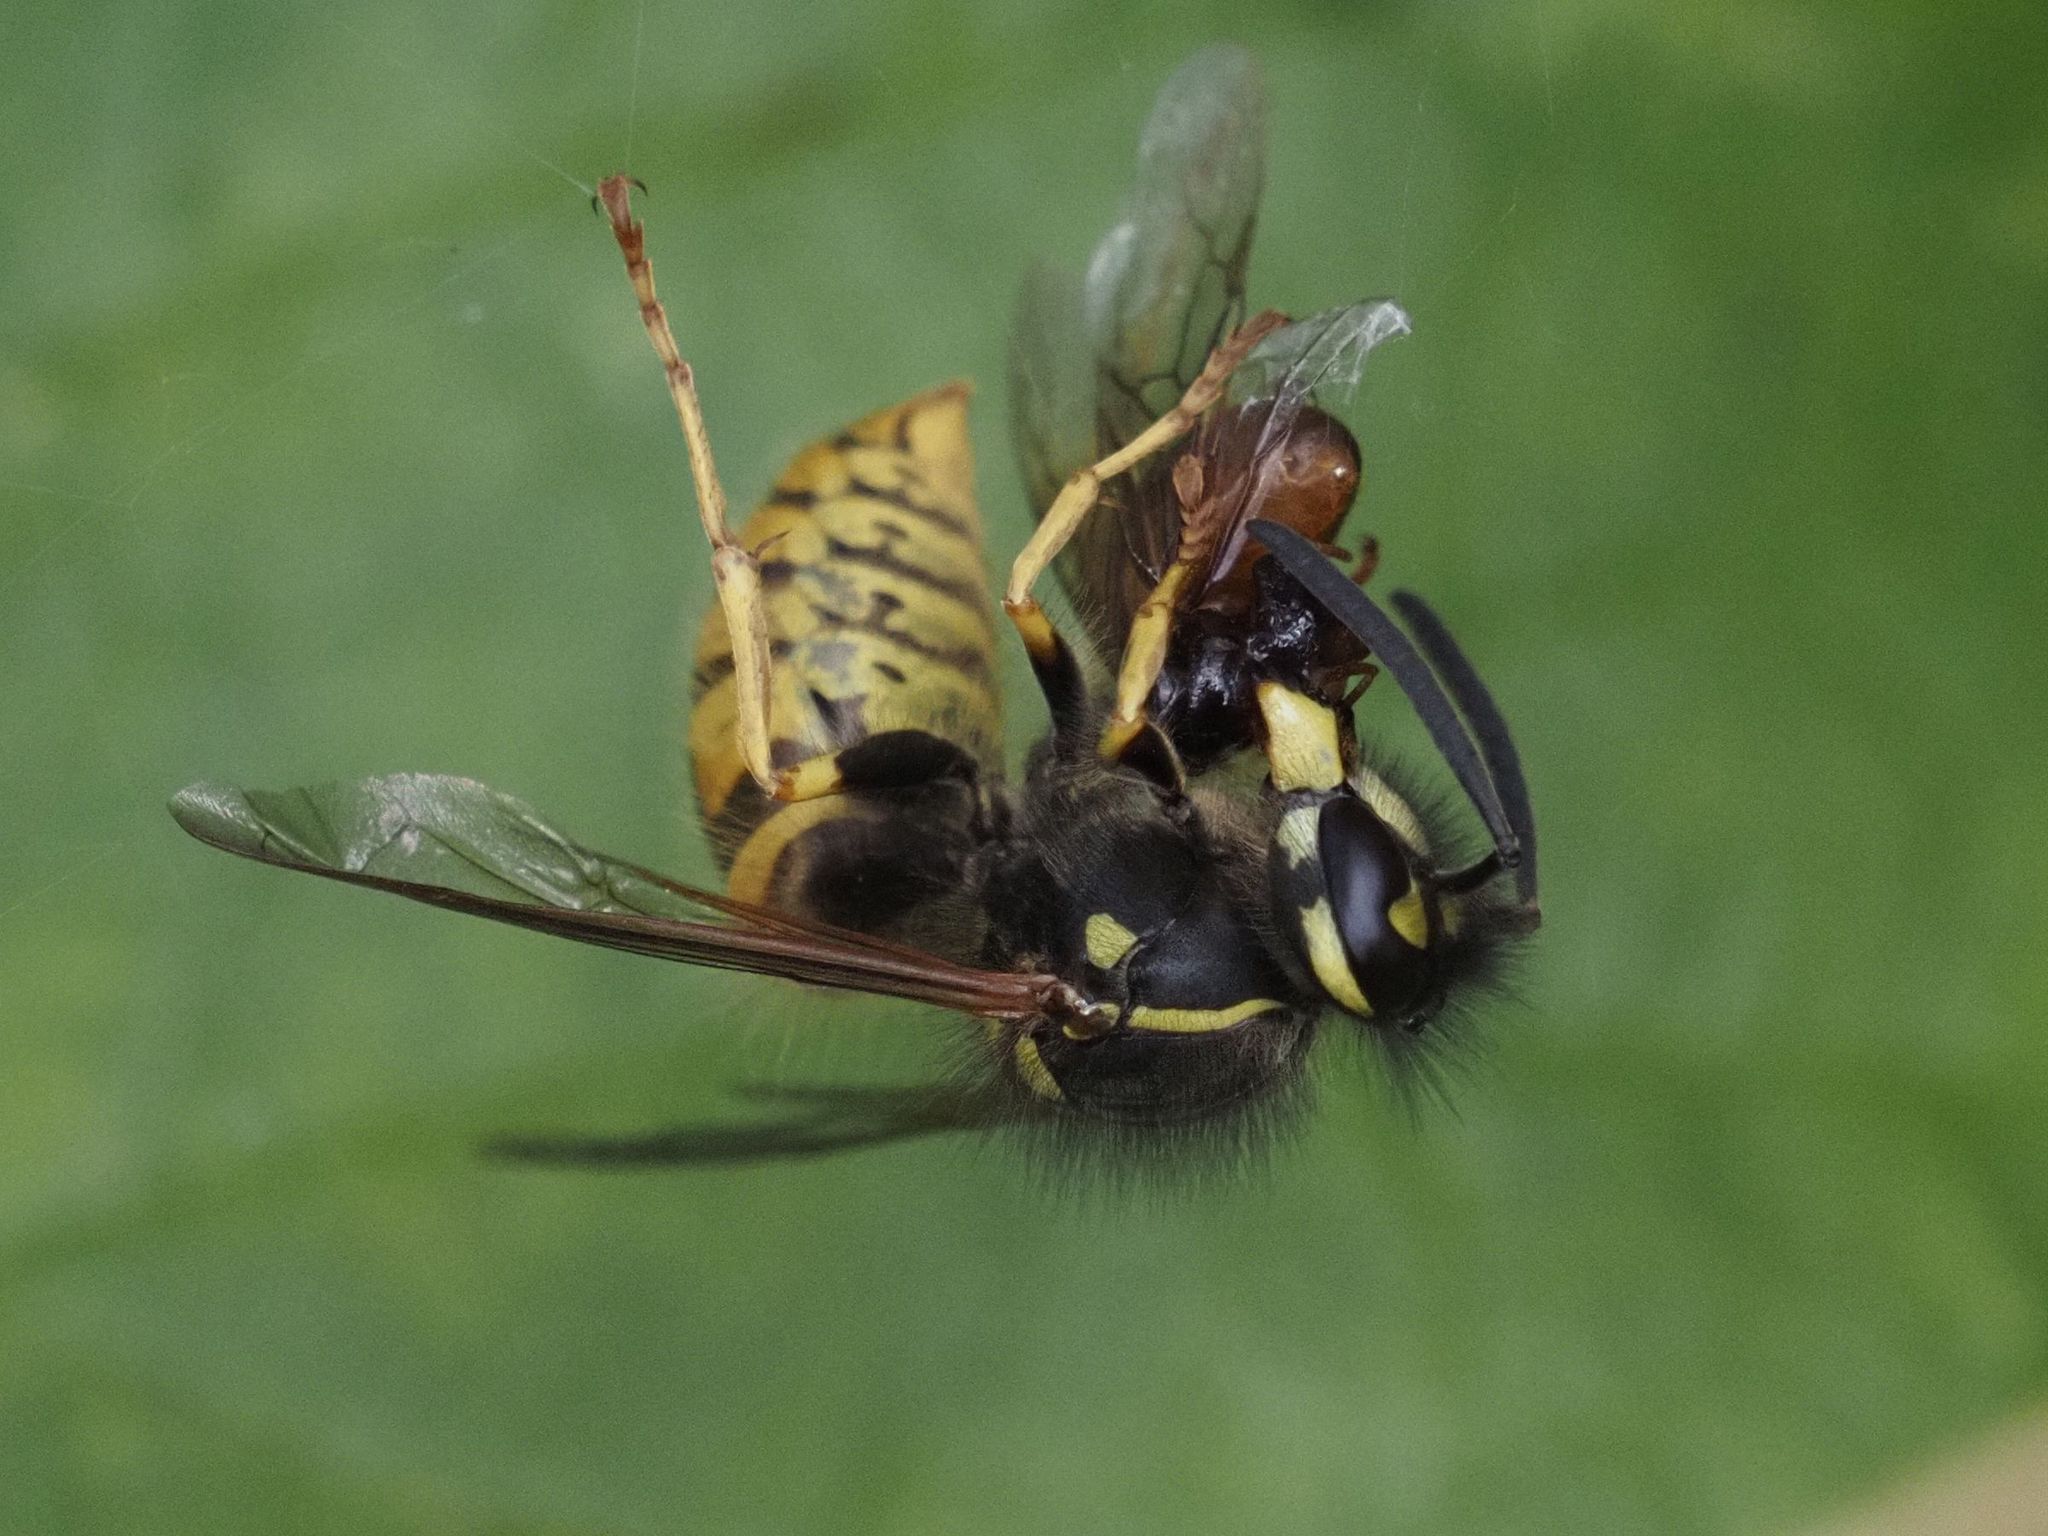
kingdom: Animalia
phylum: Arthropoda
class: Insecta
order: Hymenoptera
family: Vespidae
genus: Vespula
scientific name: Vespula vulgaris
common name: Common wasp
